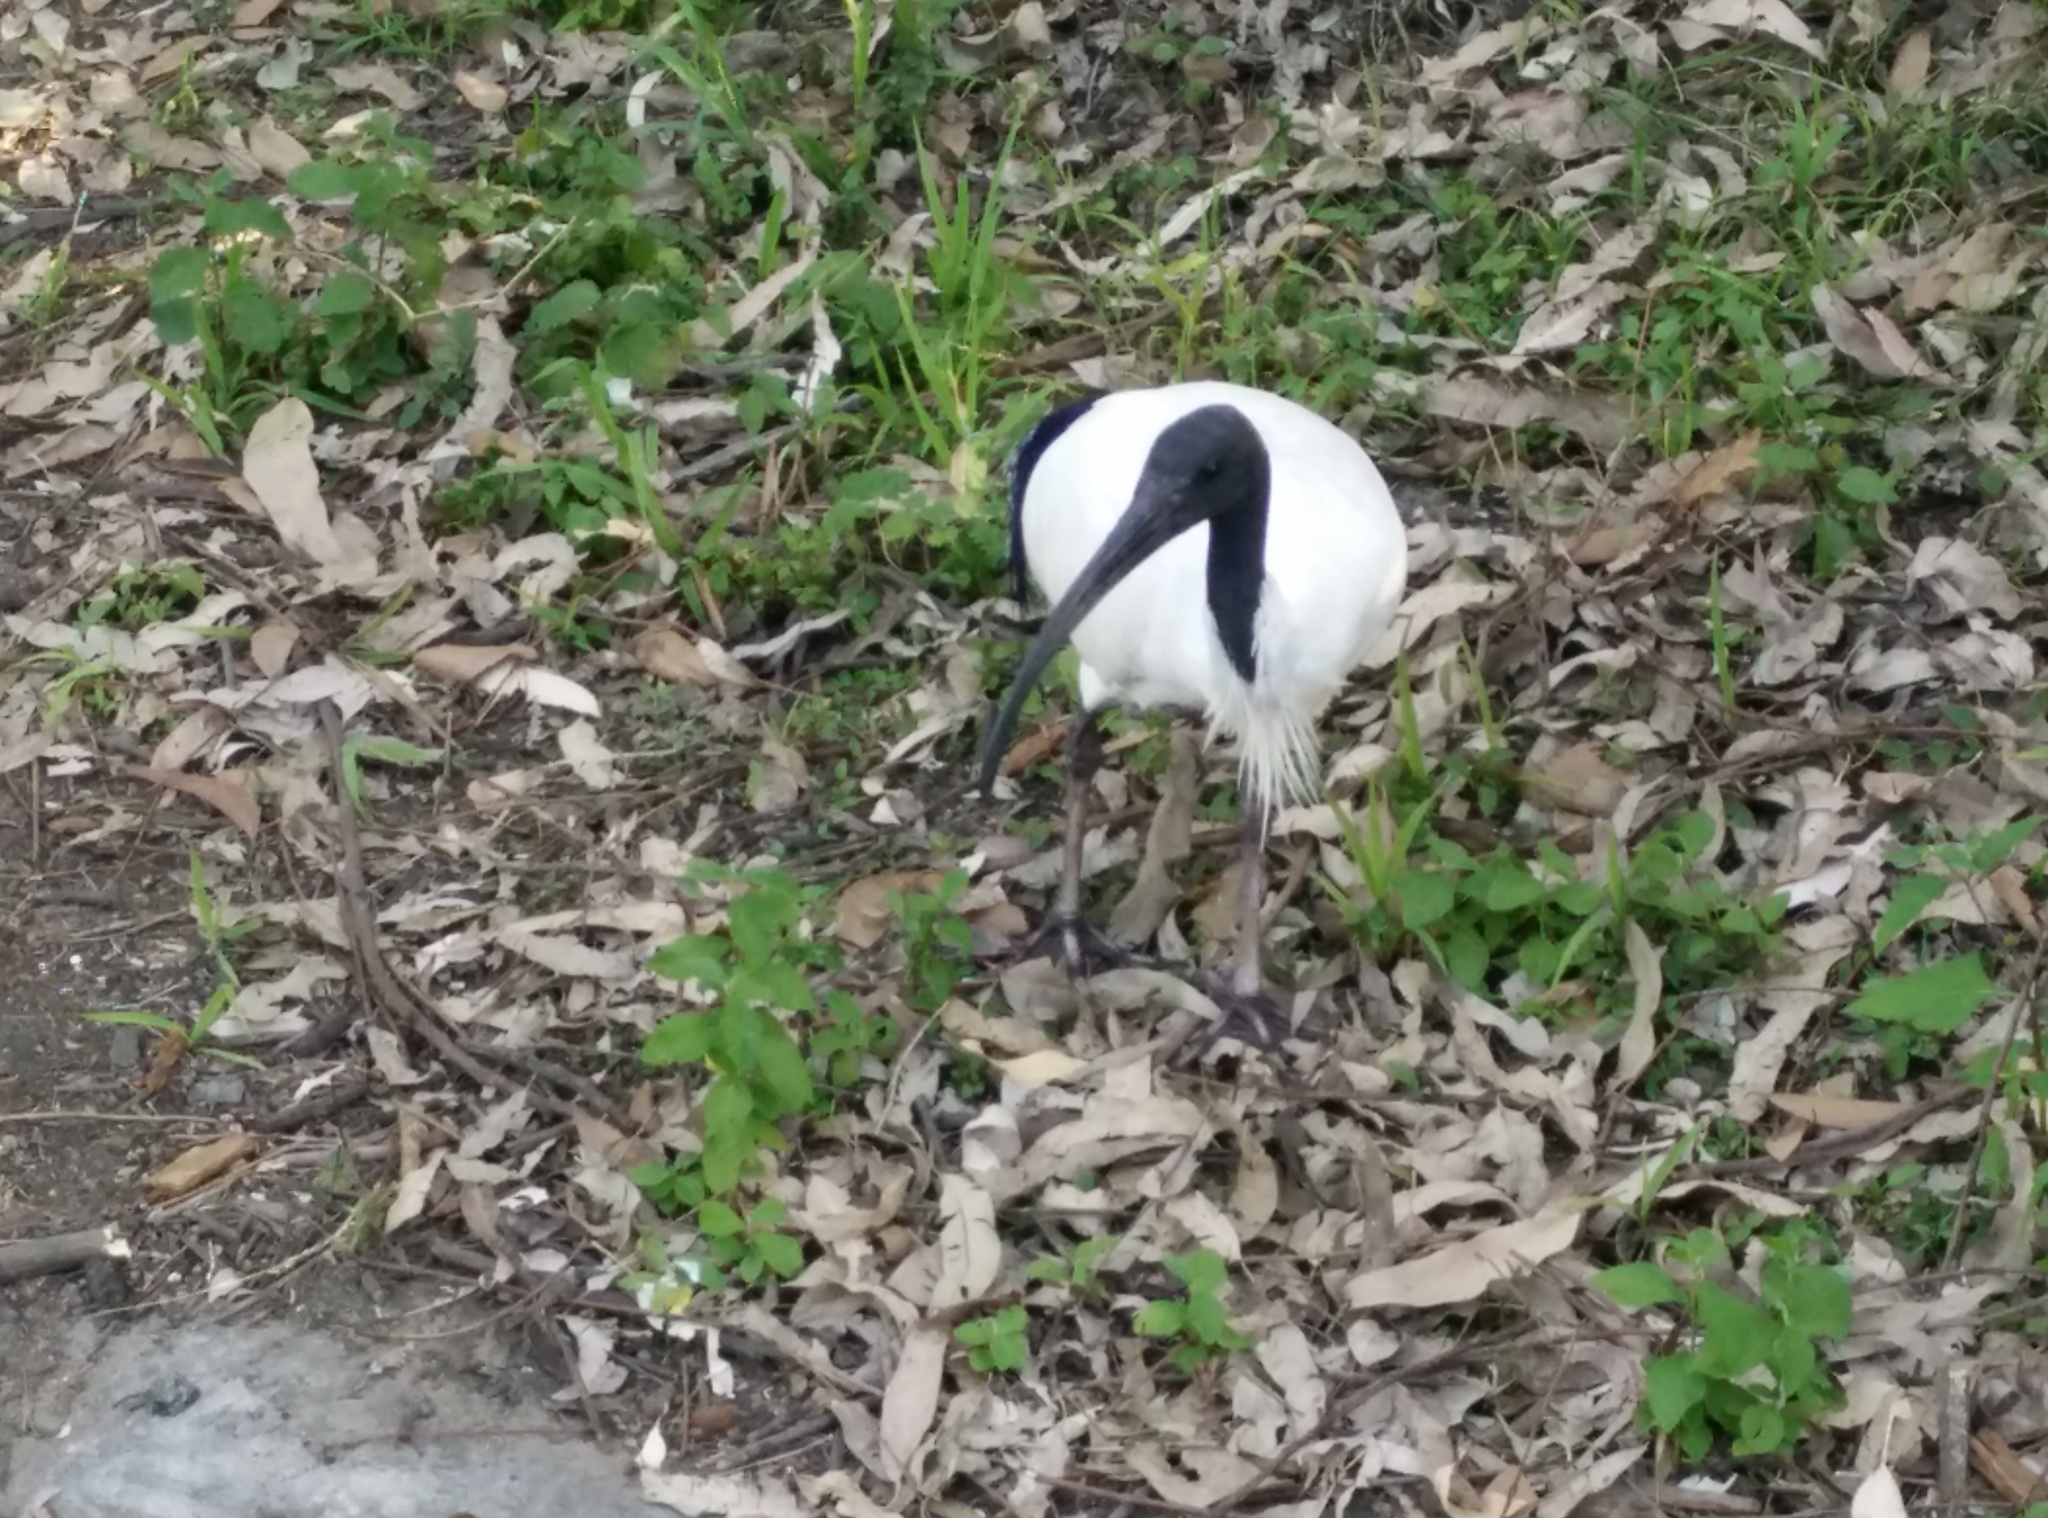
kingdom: Animalia
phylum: Chordata
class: Aves
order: Pelecaniformes
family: Threskiornithidae
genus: Threskiornis
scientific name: Threskiornis molucca
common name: Australian white ibis
